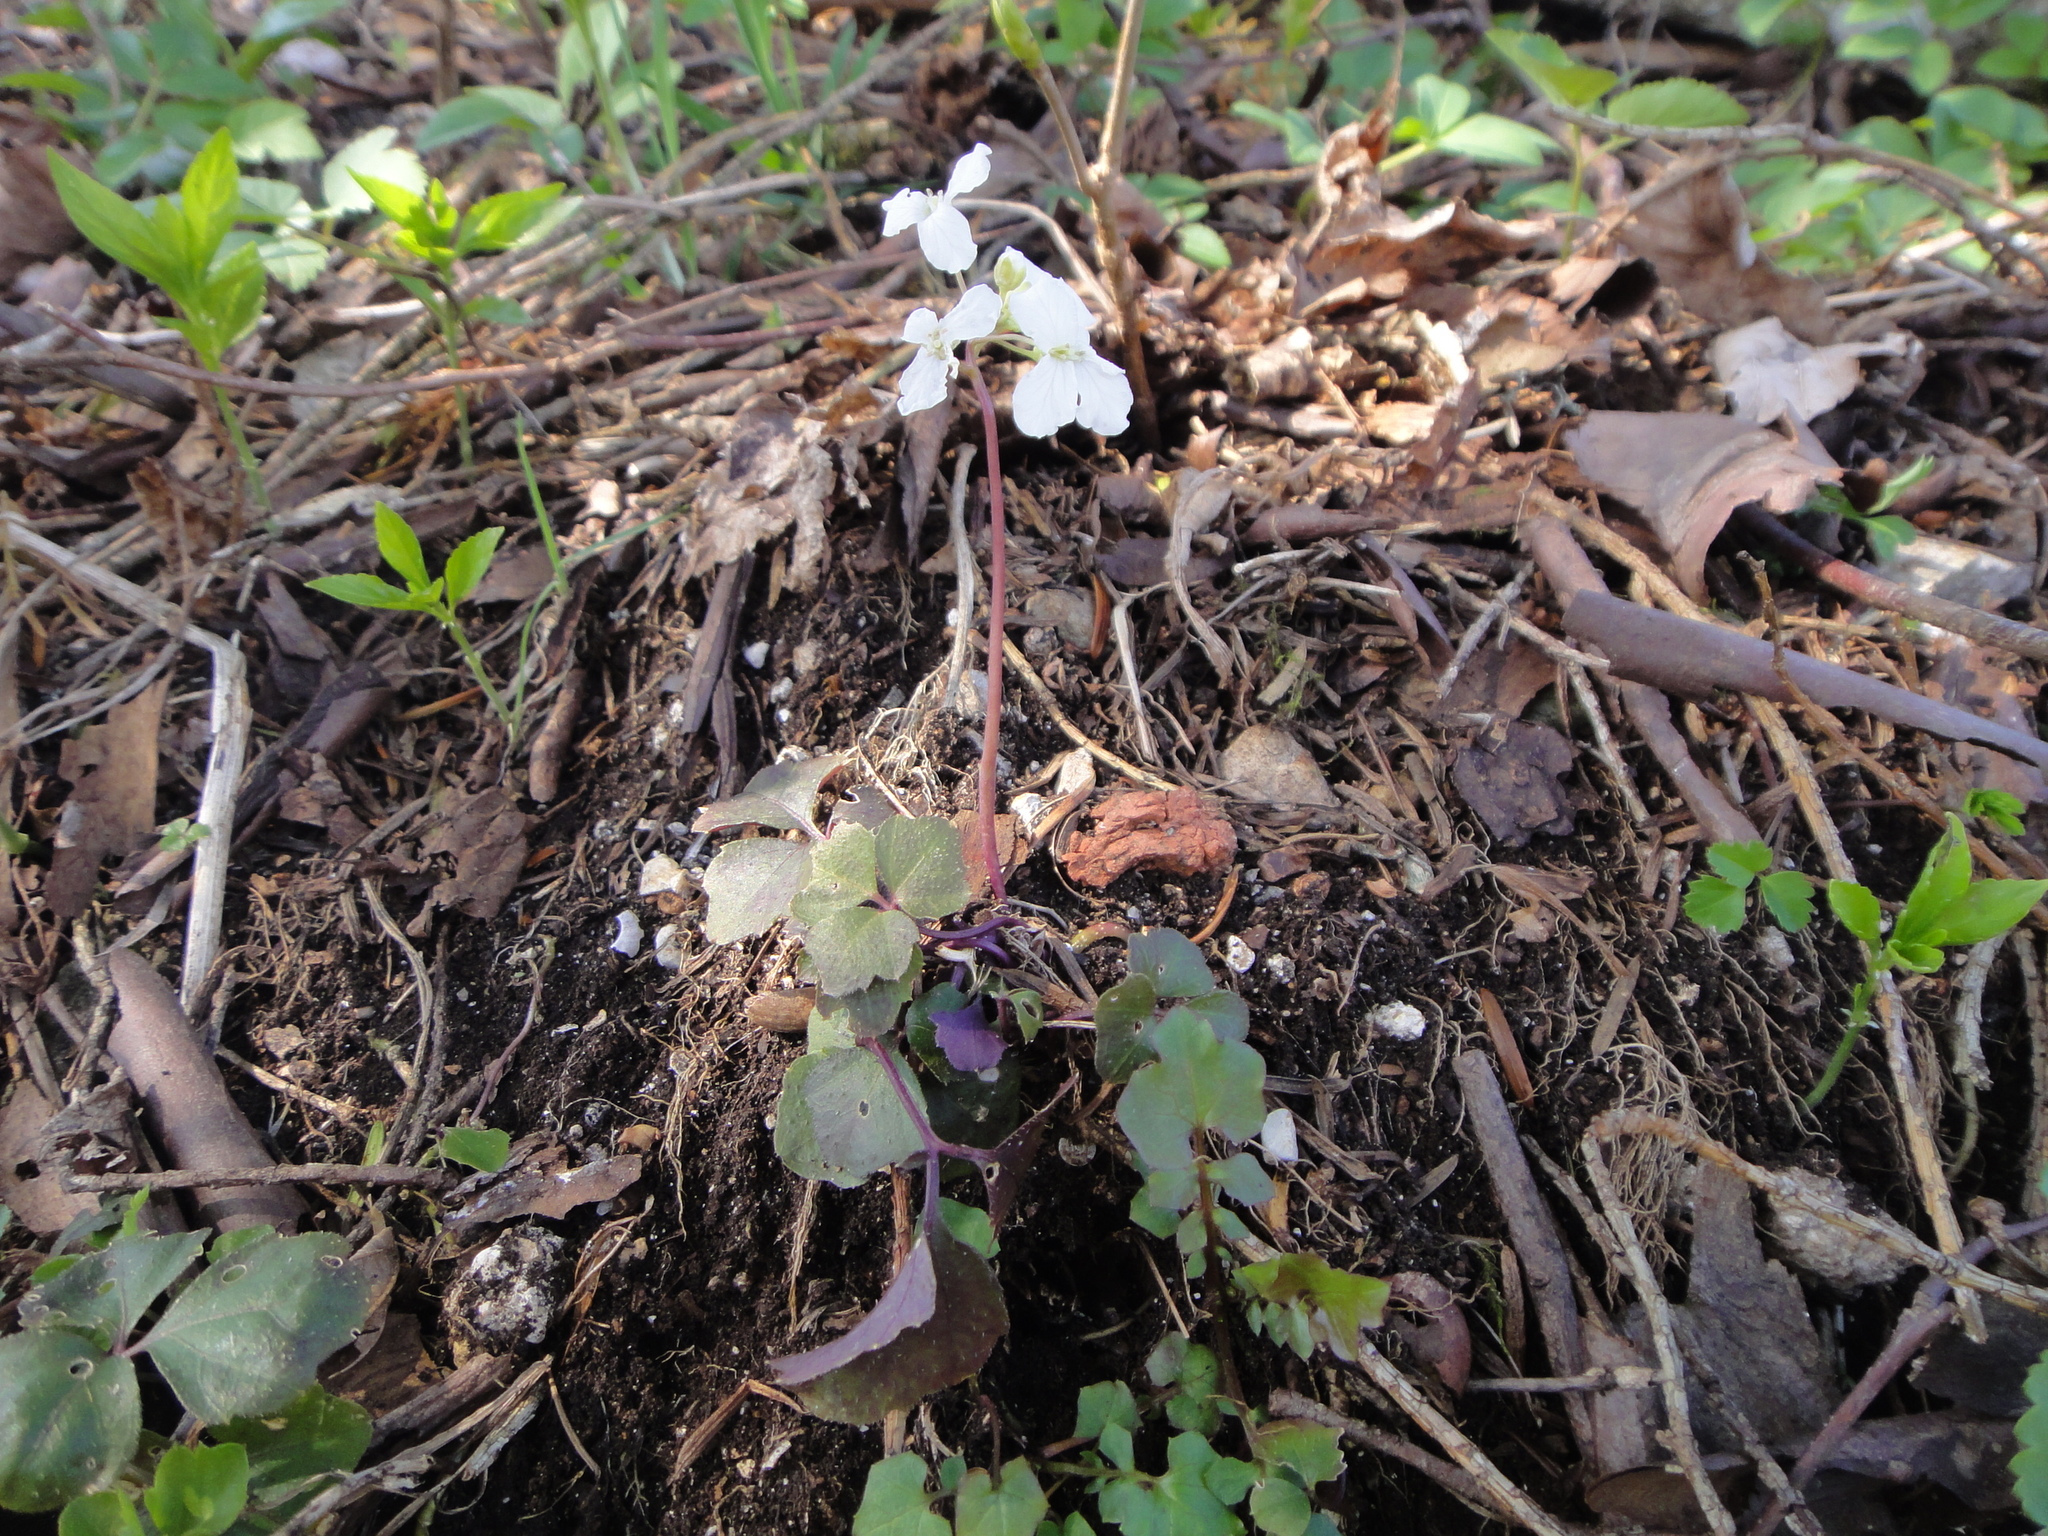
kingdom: Plantae
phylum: Tracheophyta
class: Magnoliopsida
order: Brassicales
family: Brassicaceae
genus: Cardamine
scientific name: Cardamine trifolia
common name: Trefoil cress
